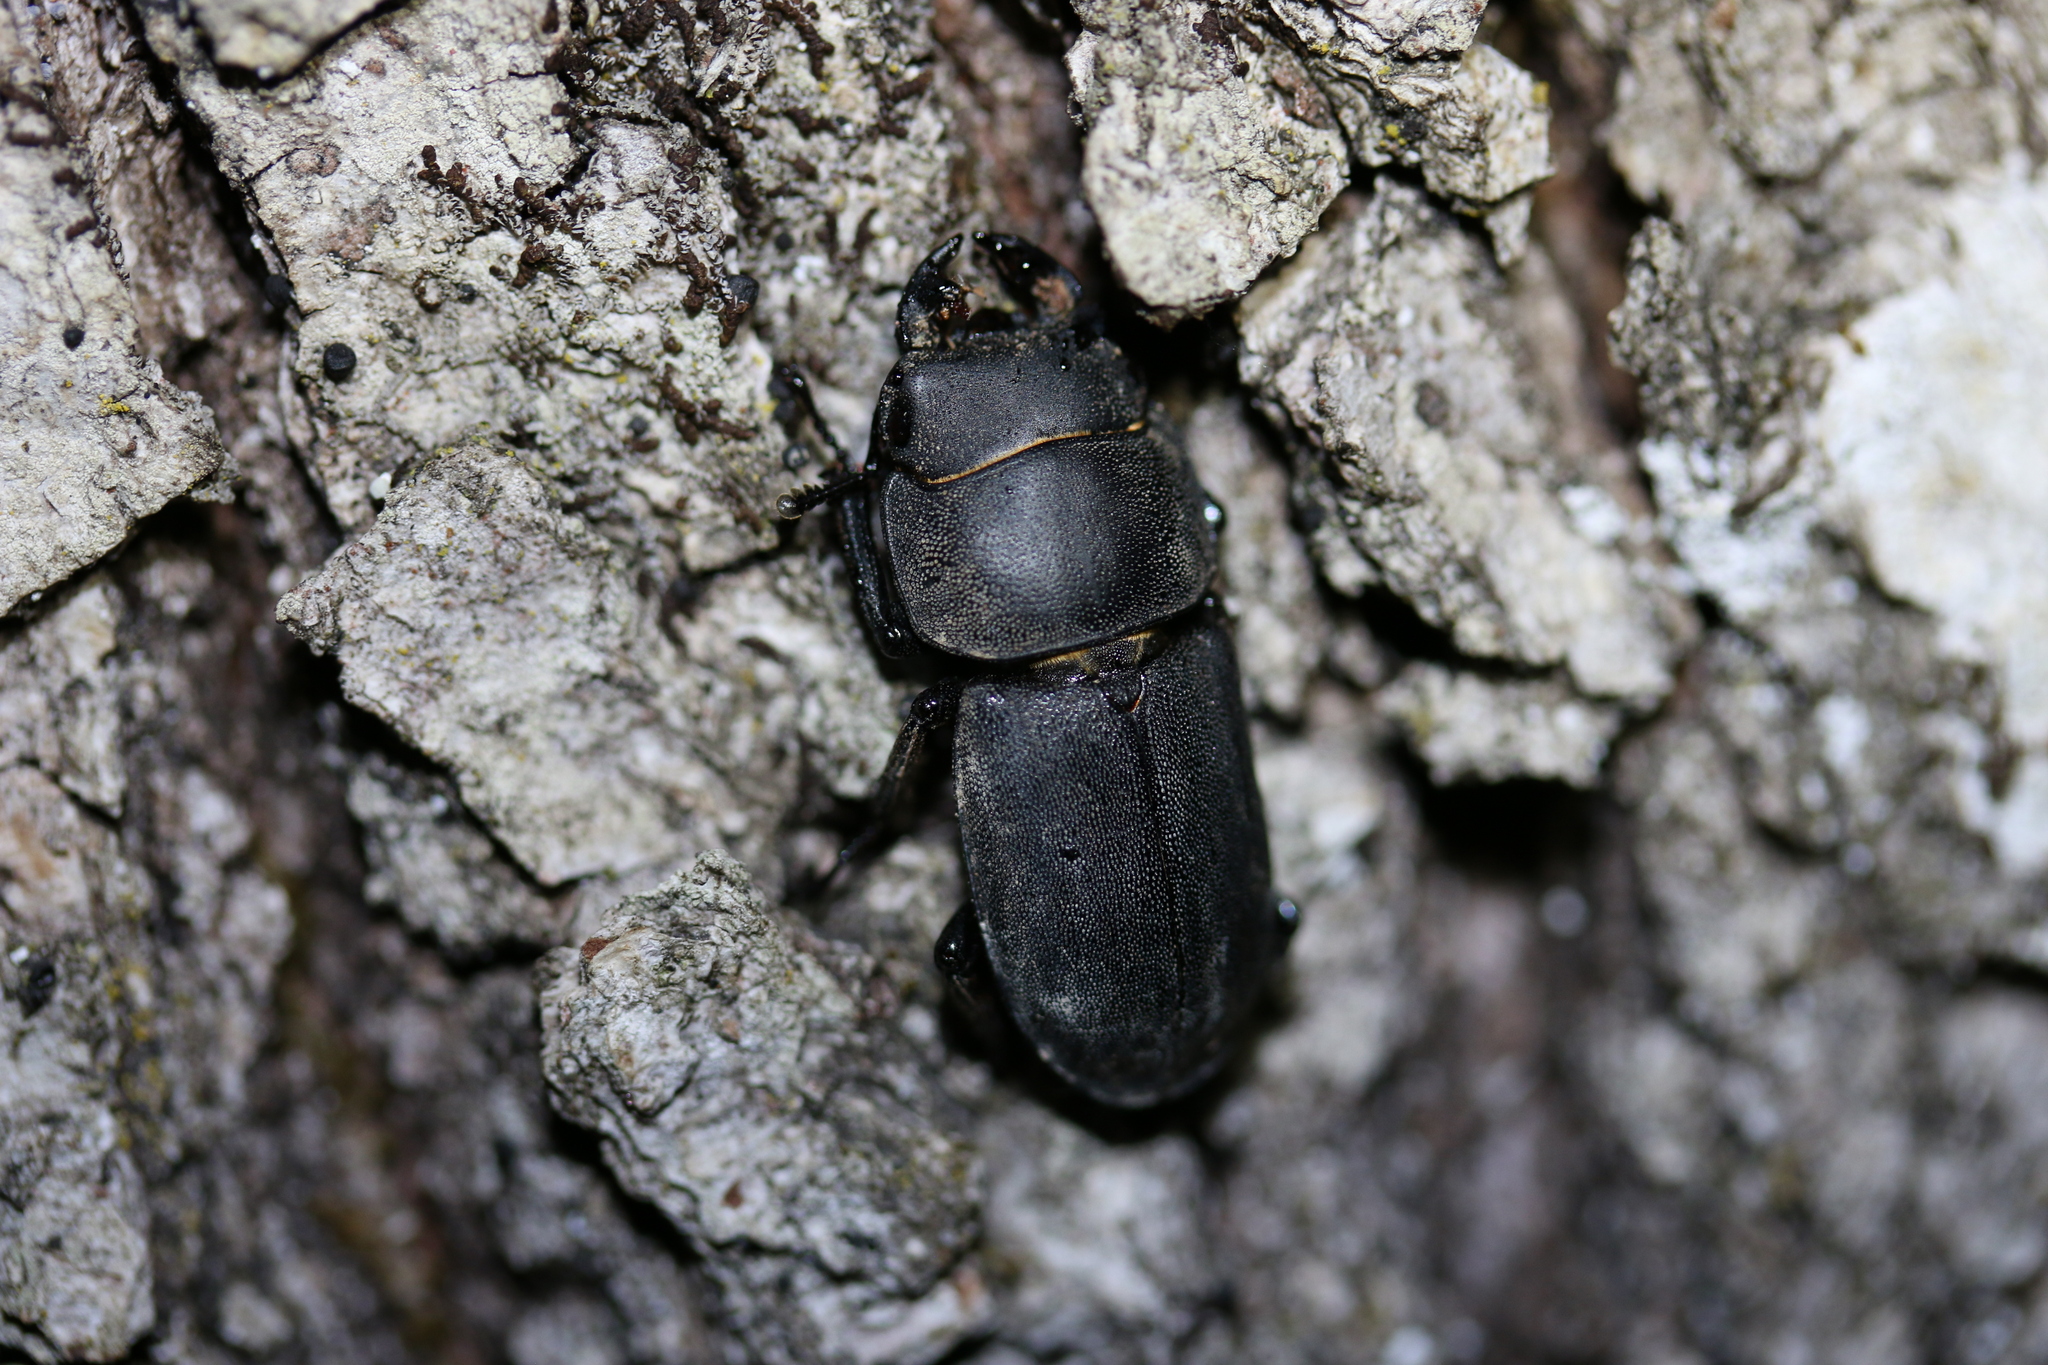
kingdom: Animalia
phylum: Arthropoda
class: Insecta
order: Coleoptera
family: Lucanidae
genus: Dorcus
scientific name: Dorcus parallelipipedus
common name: Lesser stag beetle
